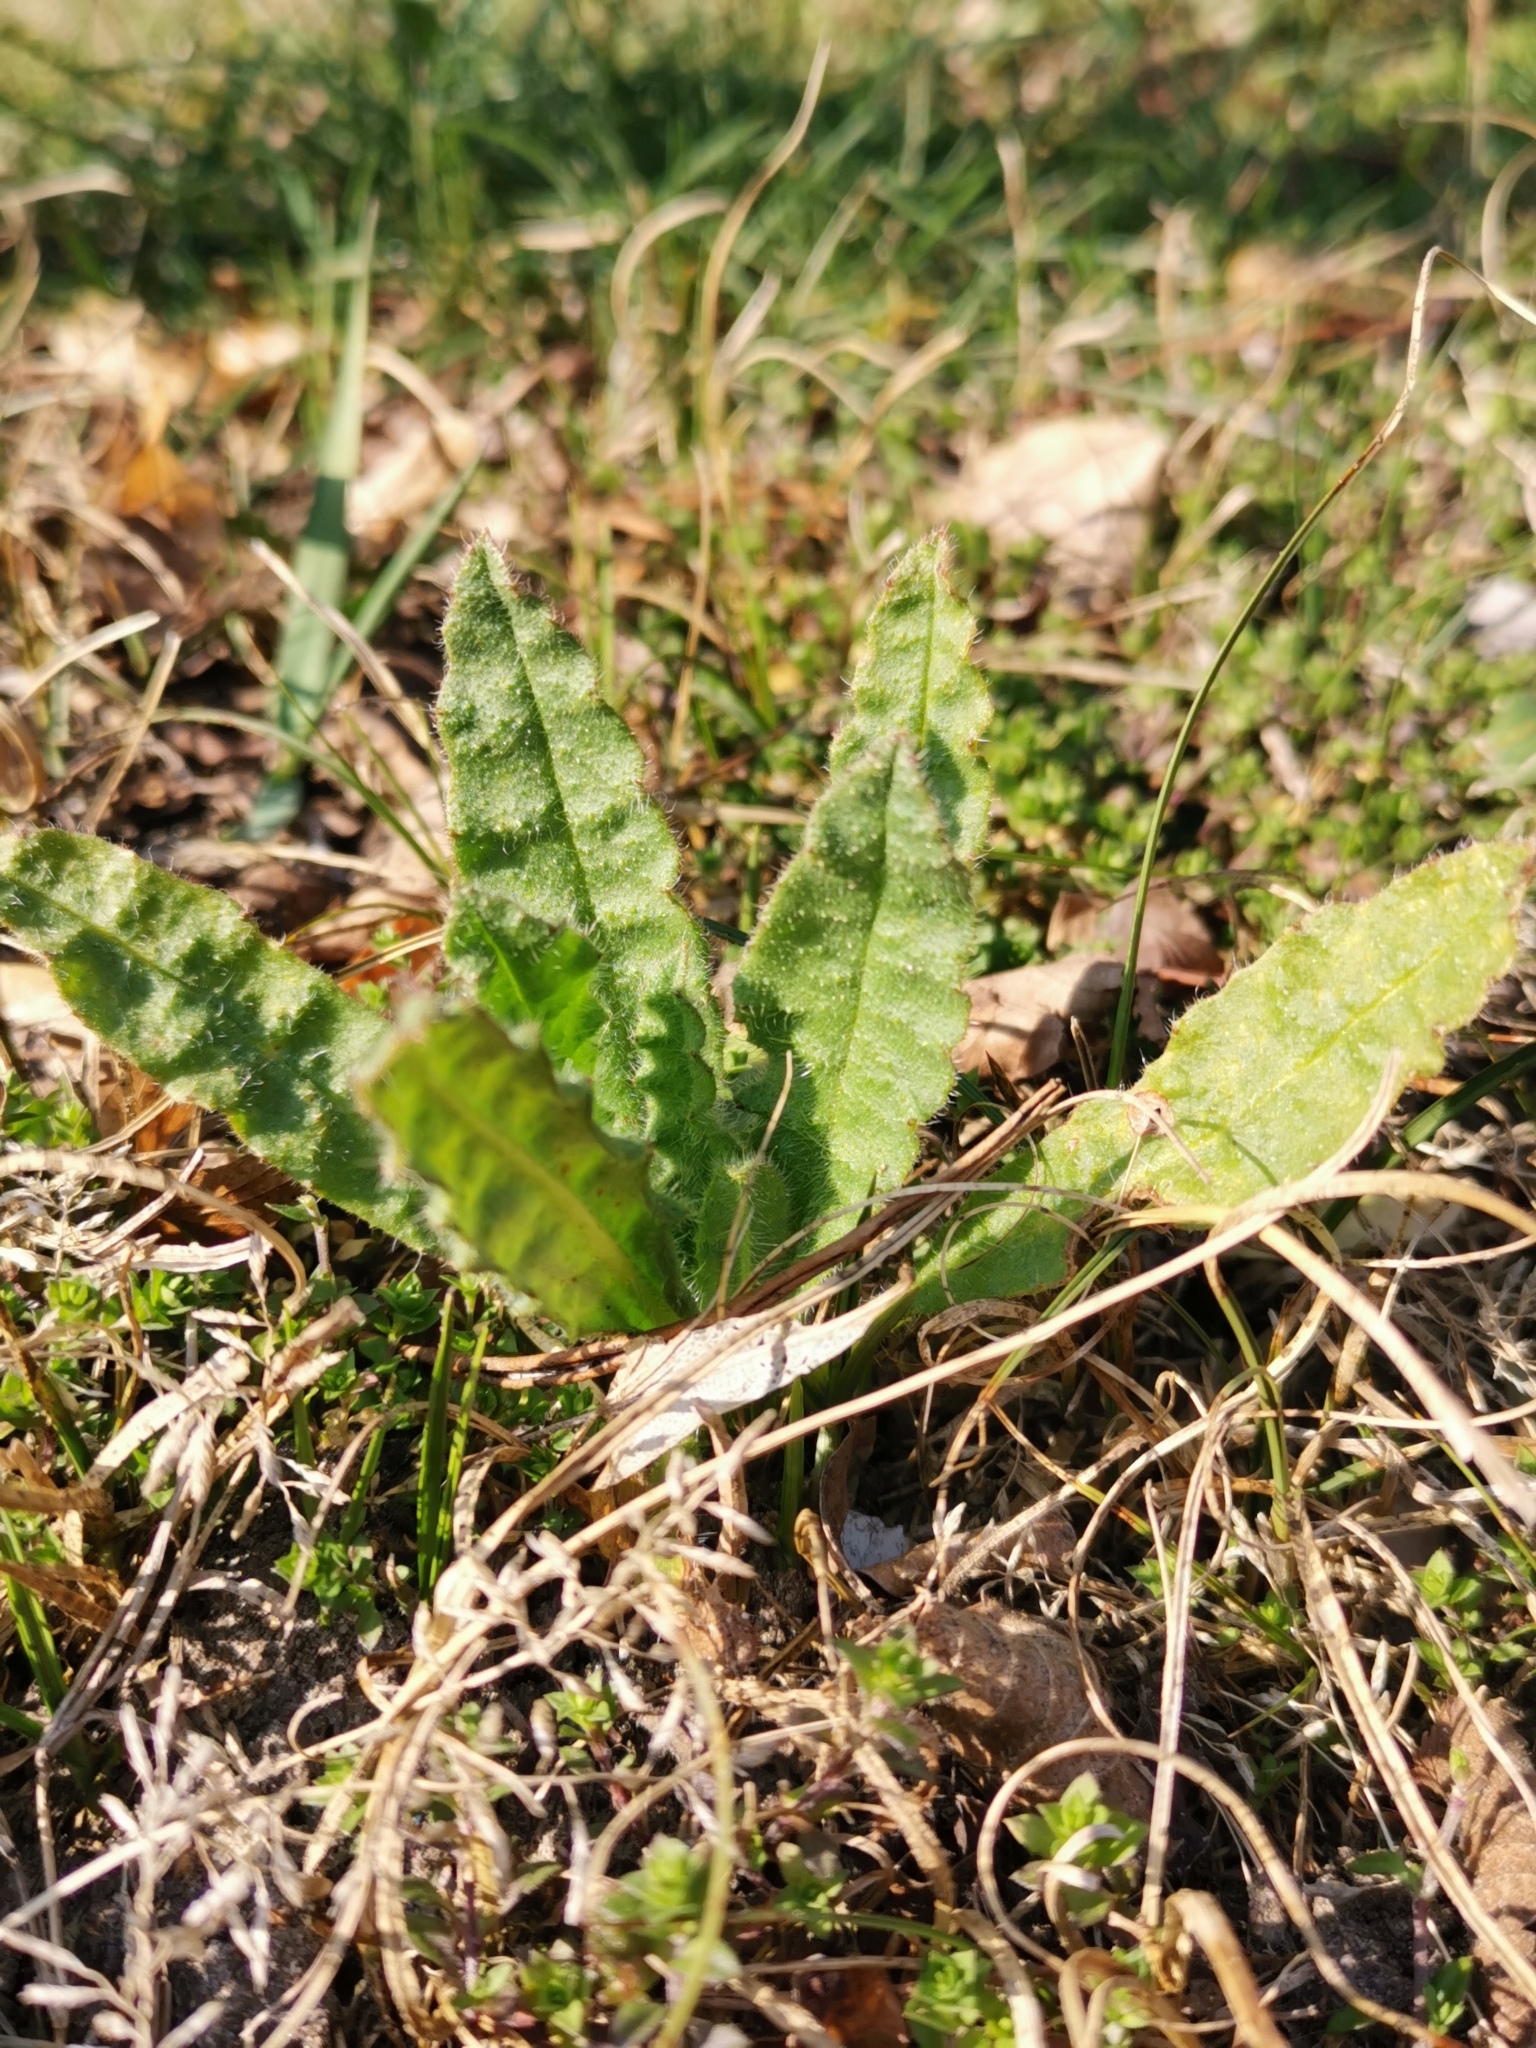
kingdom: Plantae
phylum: Tracheophyta
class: Magnoliopsida
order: Boraginales
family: Boraginaceae
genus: Echium
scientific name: Echium vulgare
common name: Common viper's bugloss
